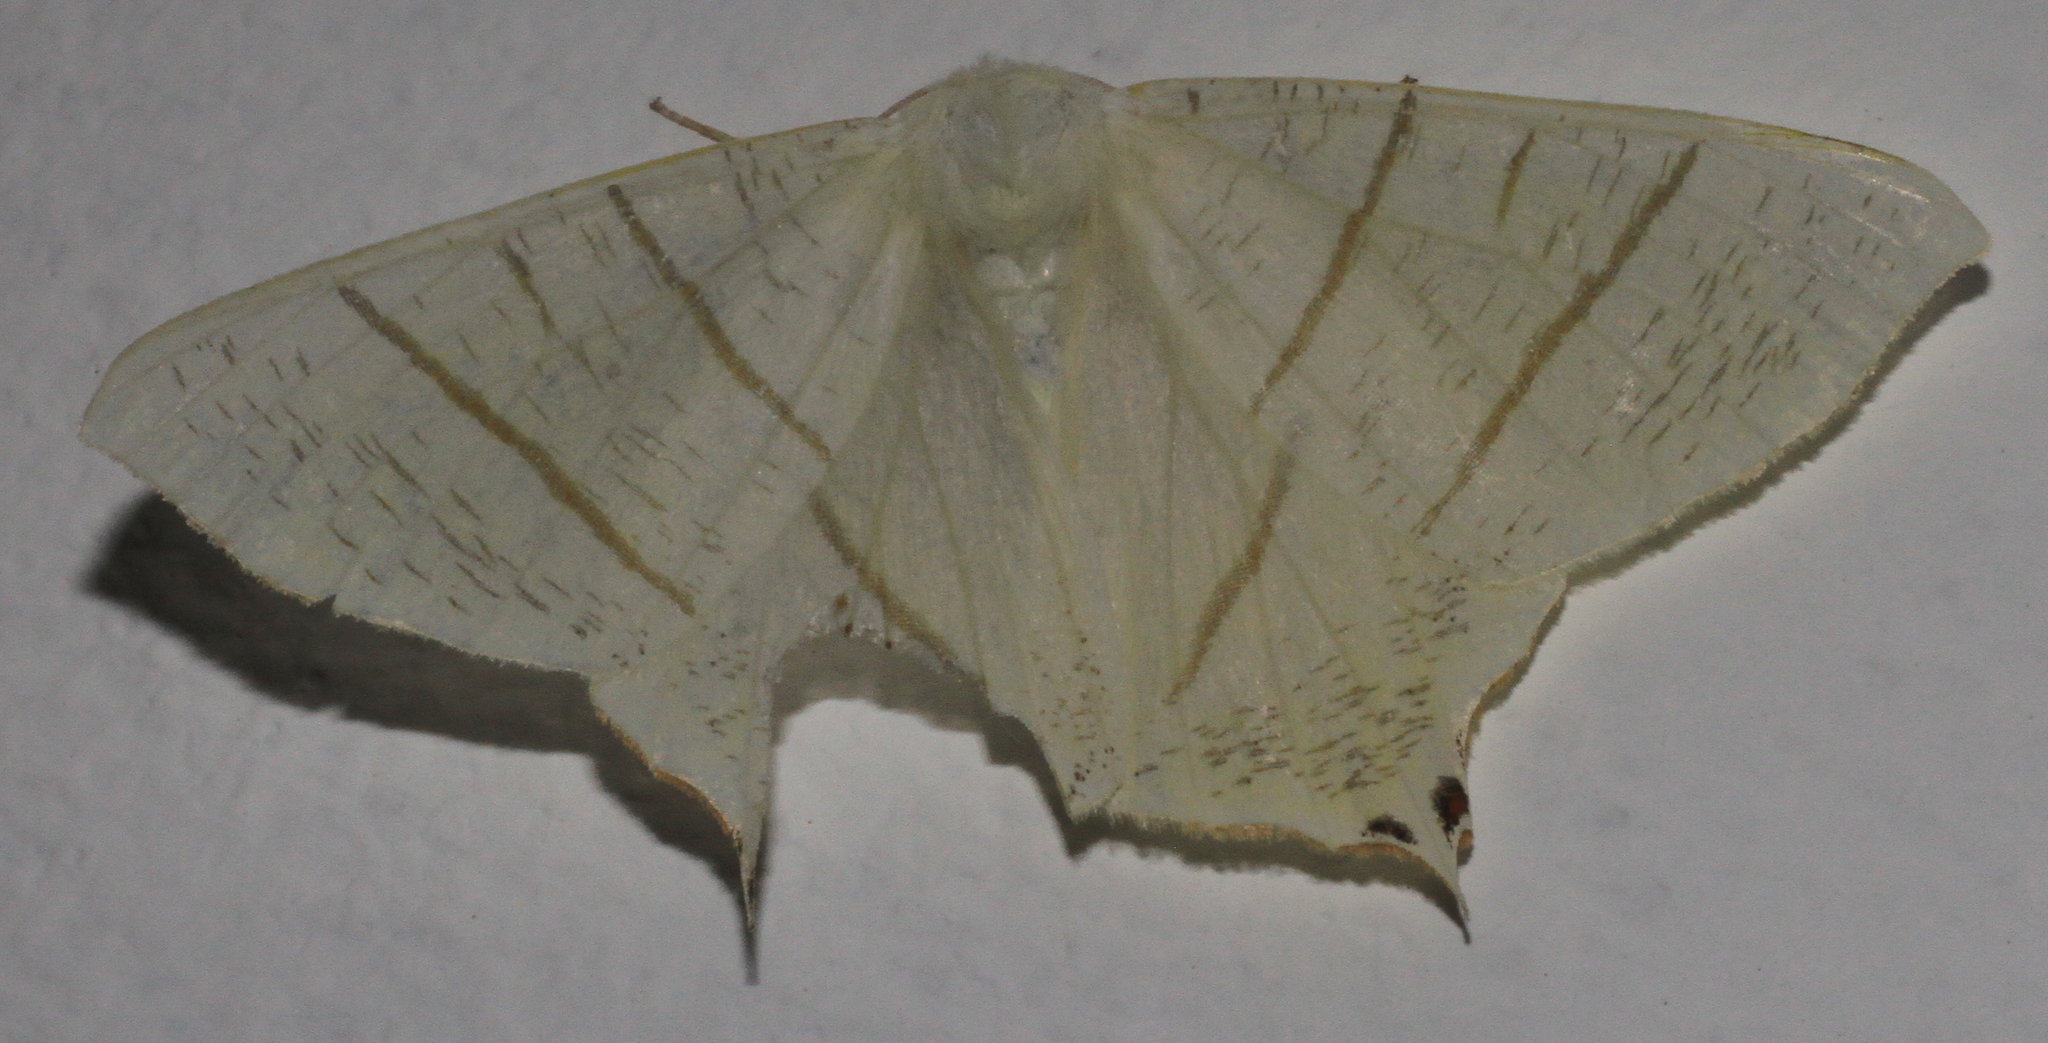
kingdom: Animalia
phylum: Arthropoda
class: Insecta
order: Lepidoptera
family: Geometridae
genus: Ourapteryx
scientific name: Ourapteryx sambucaria
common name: Swallow-tailed moth
